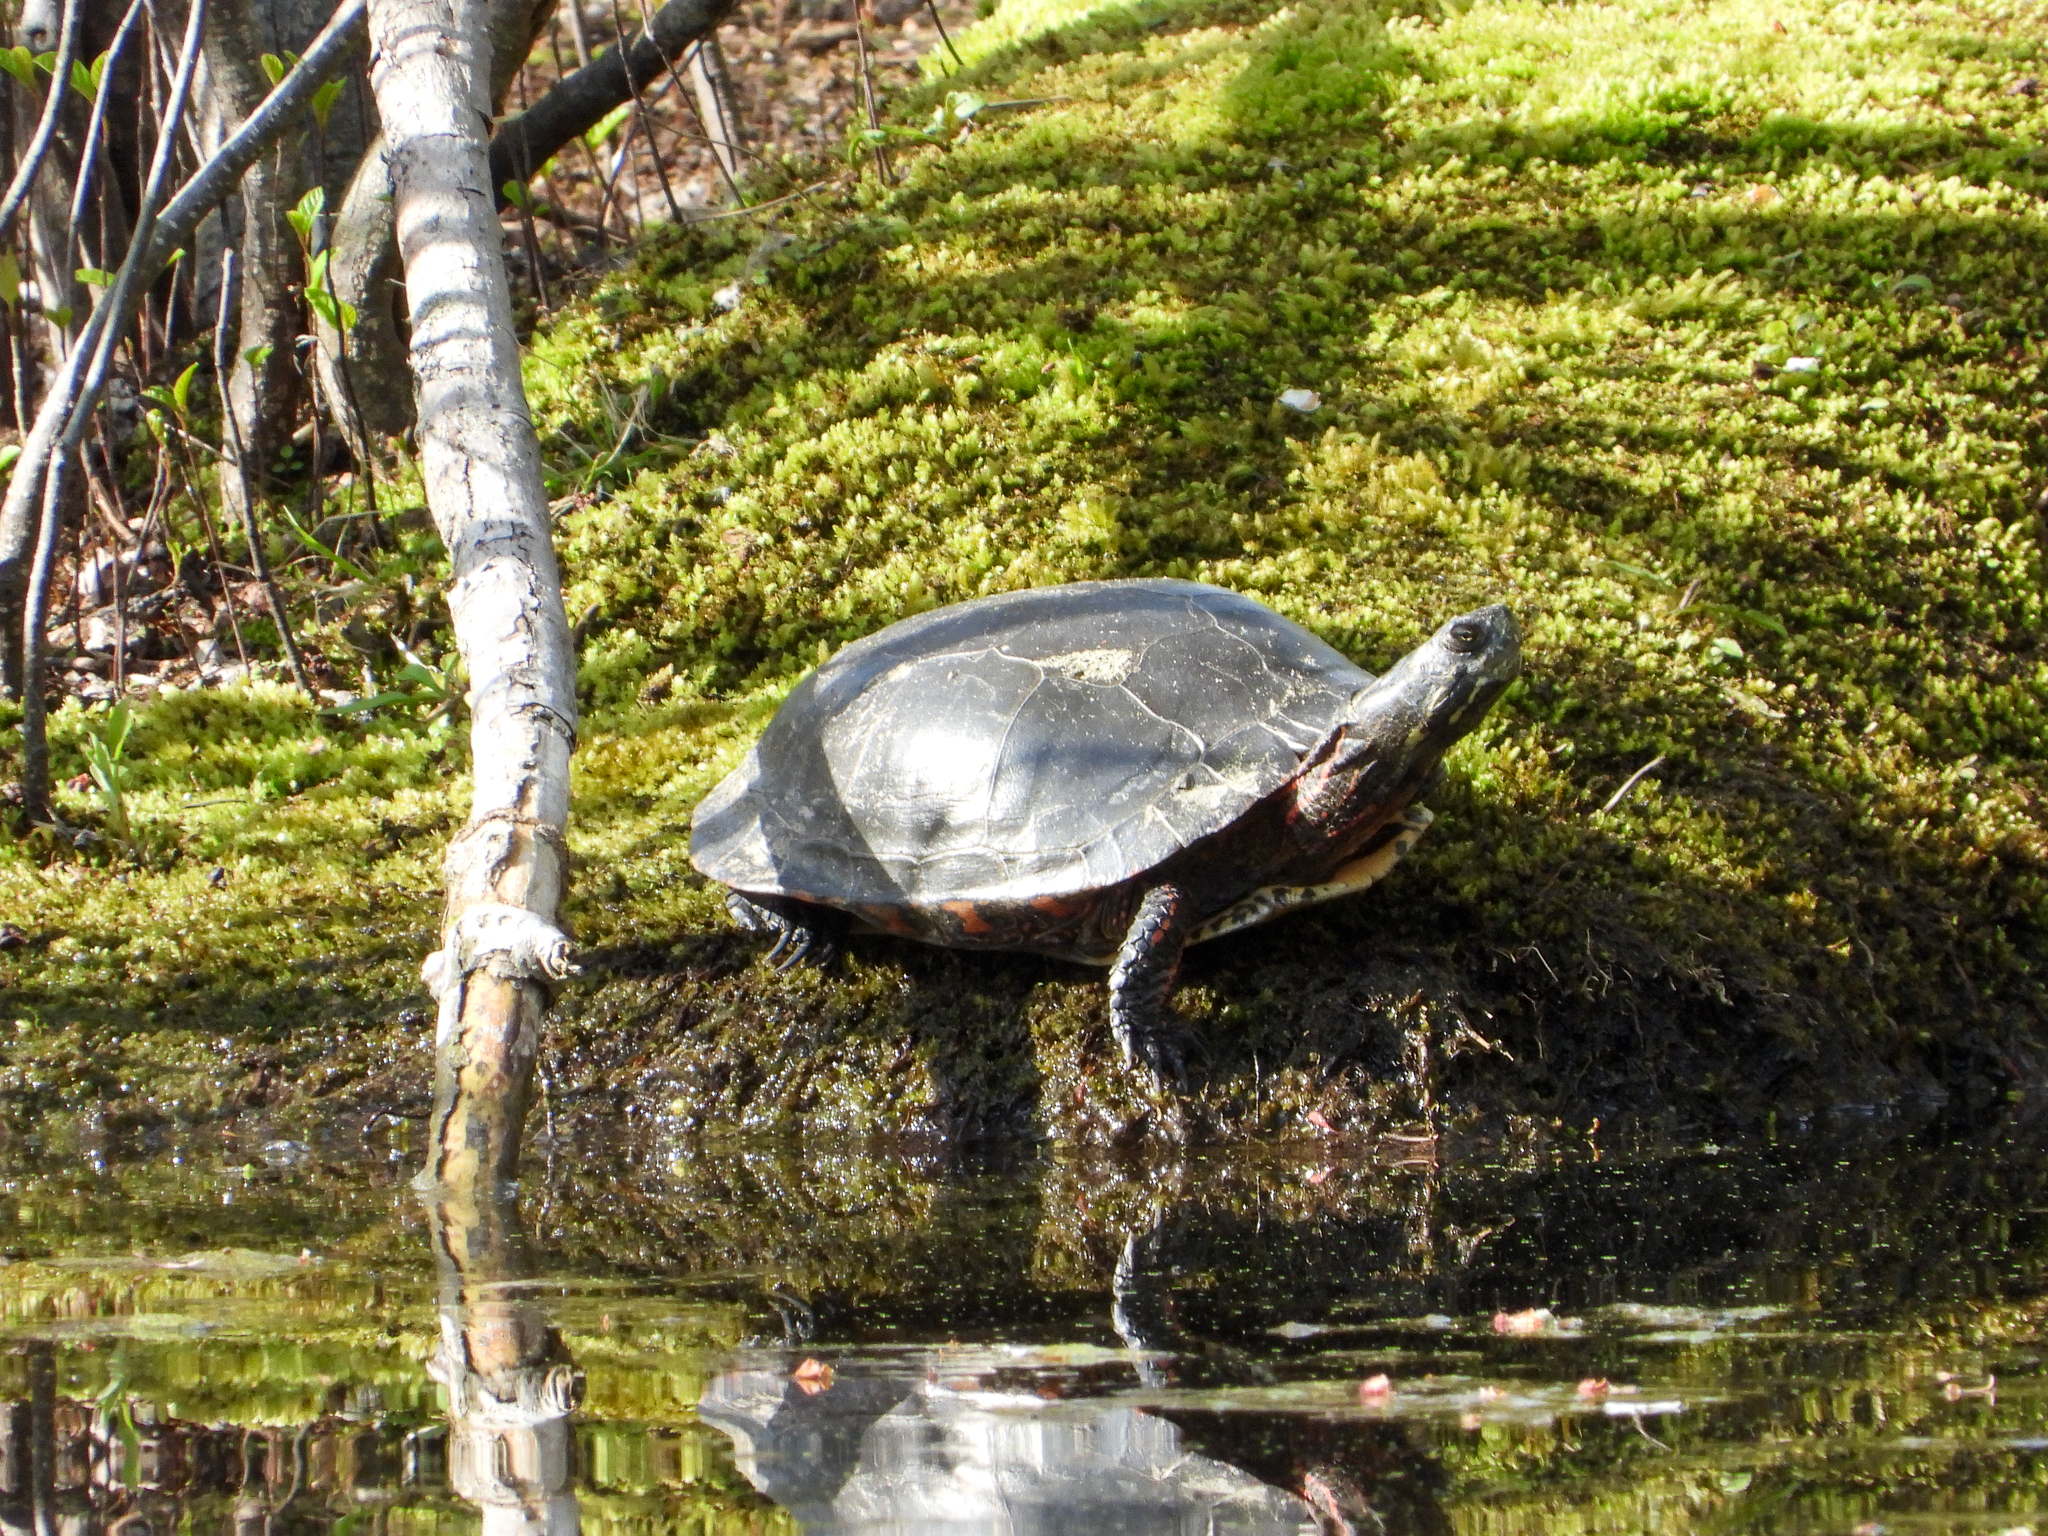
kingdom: Animalia
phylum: Chordata
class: Testudines
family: Emydidae
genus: Chrysemys
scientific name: Chrysemys picta
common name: Painted turtle
